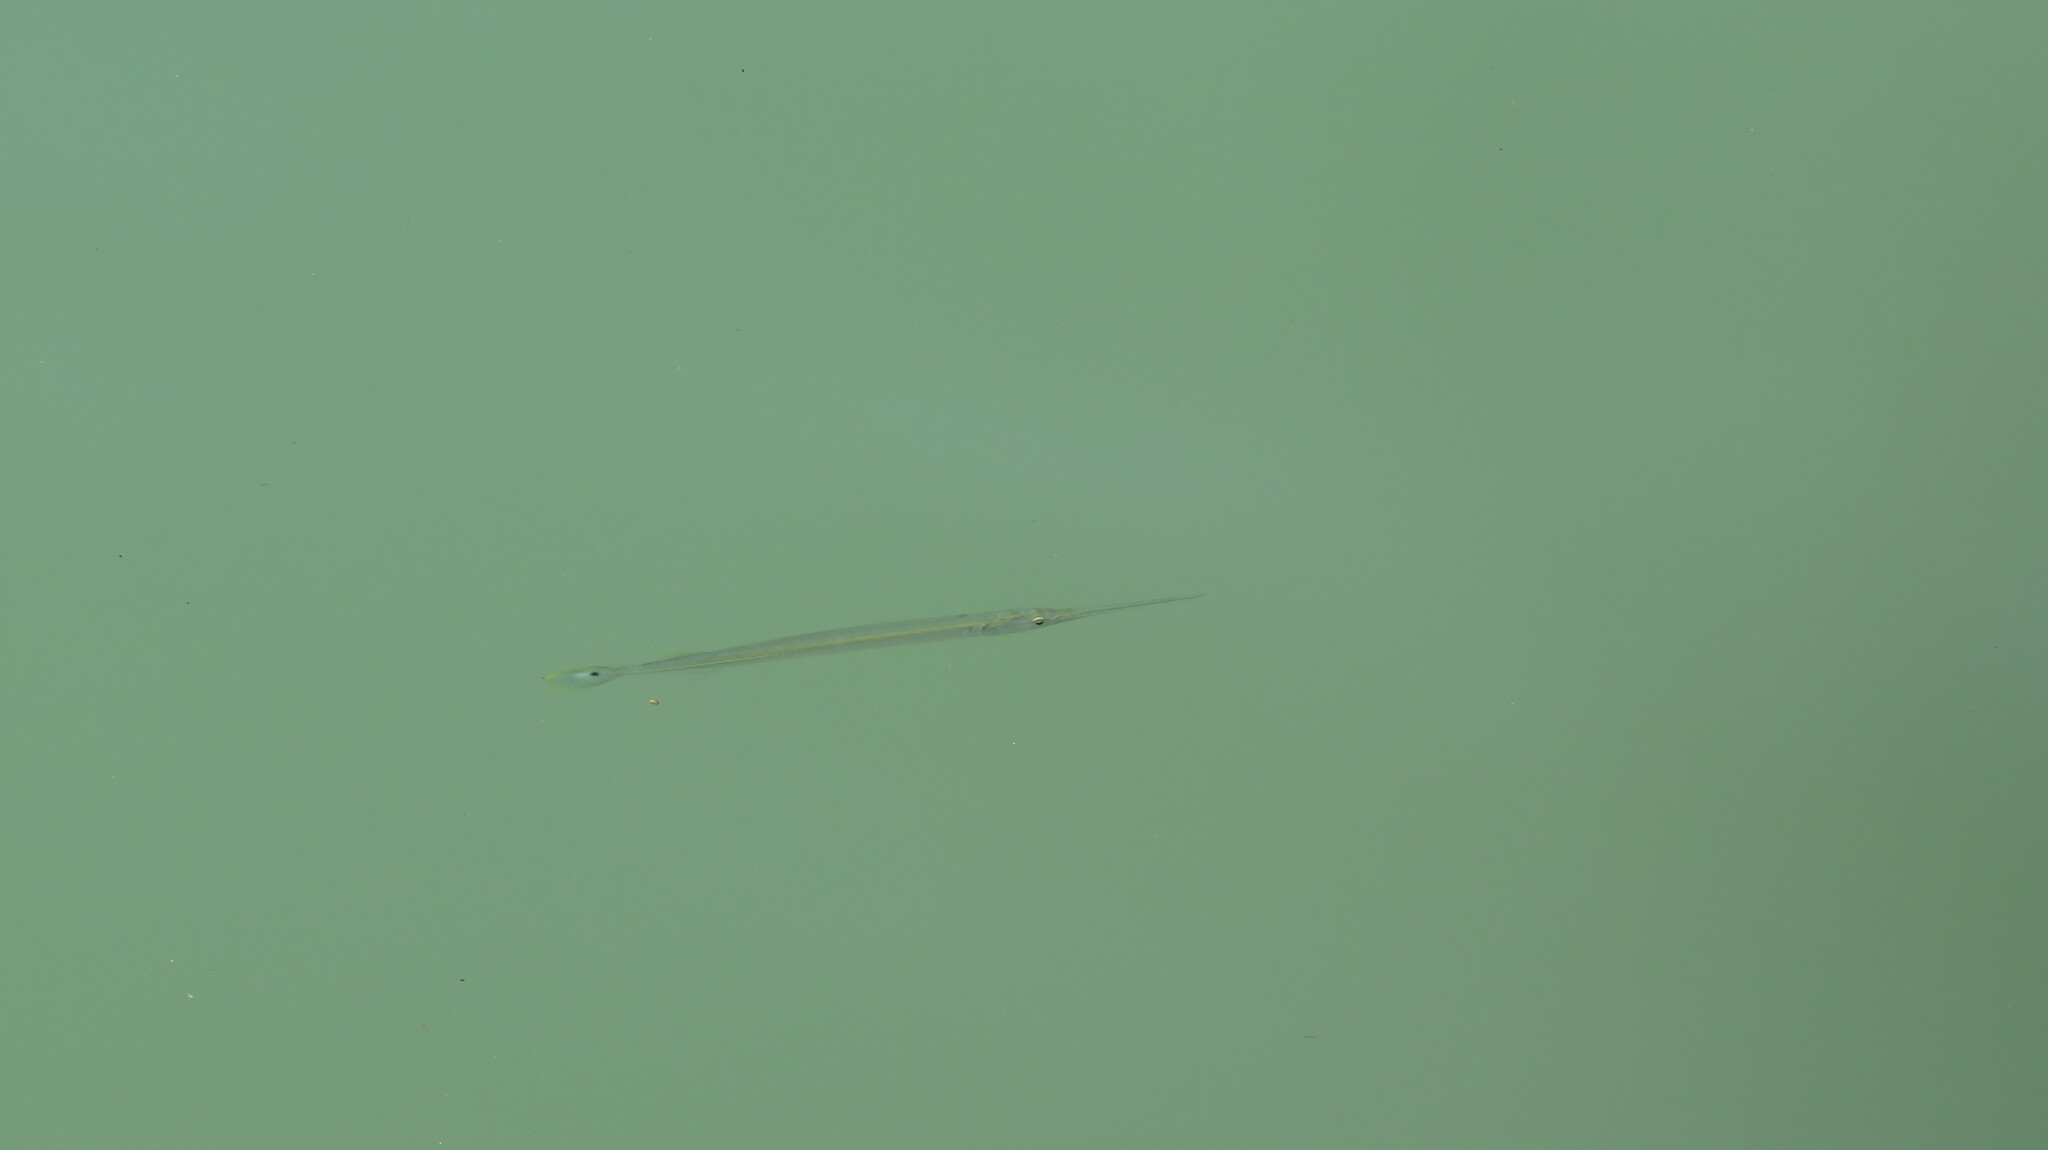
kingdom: Animalia
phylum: Chordata
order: Beloniformes
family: Belonidae
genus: Strongylura
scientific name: Strongylura strongylura
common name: Spottail needlefish
